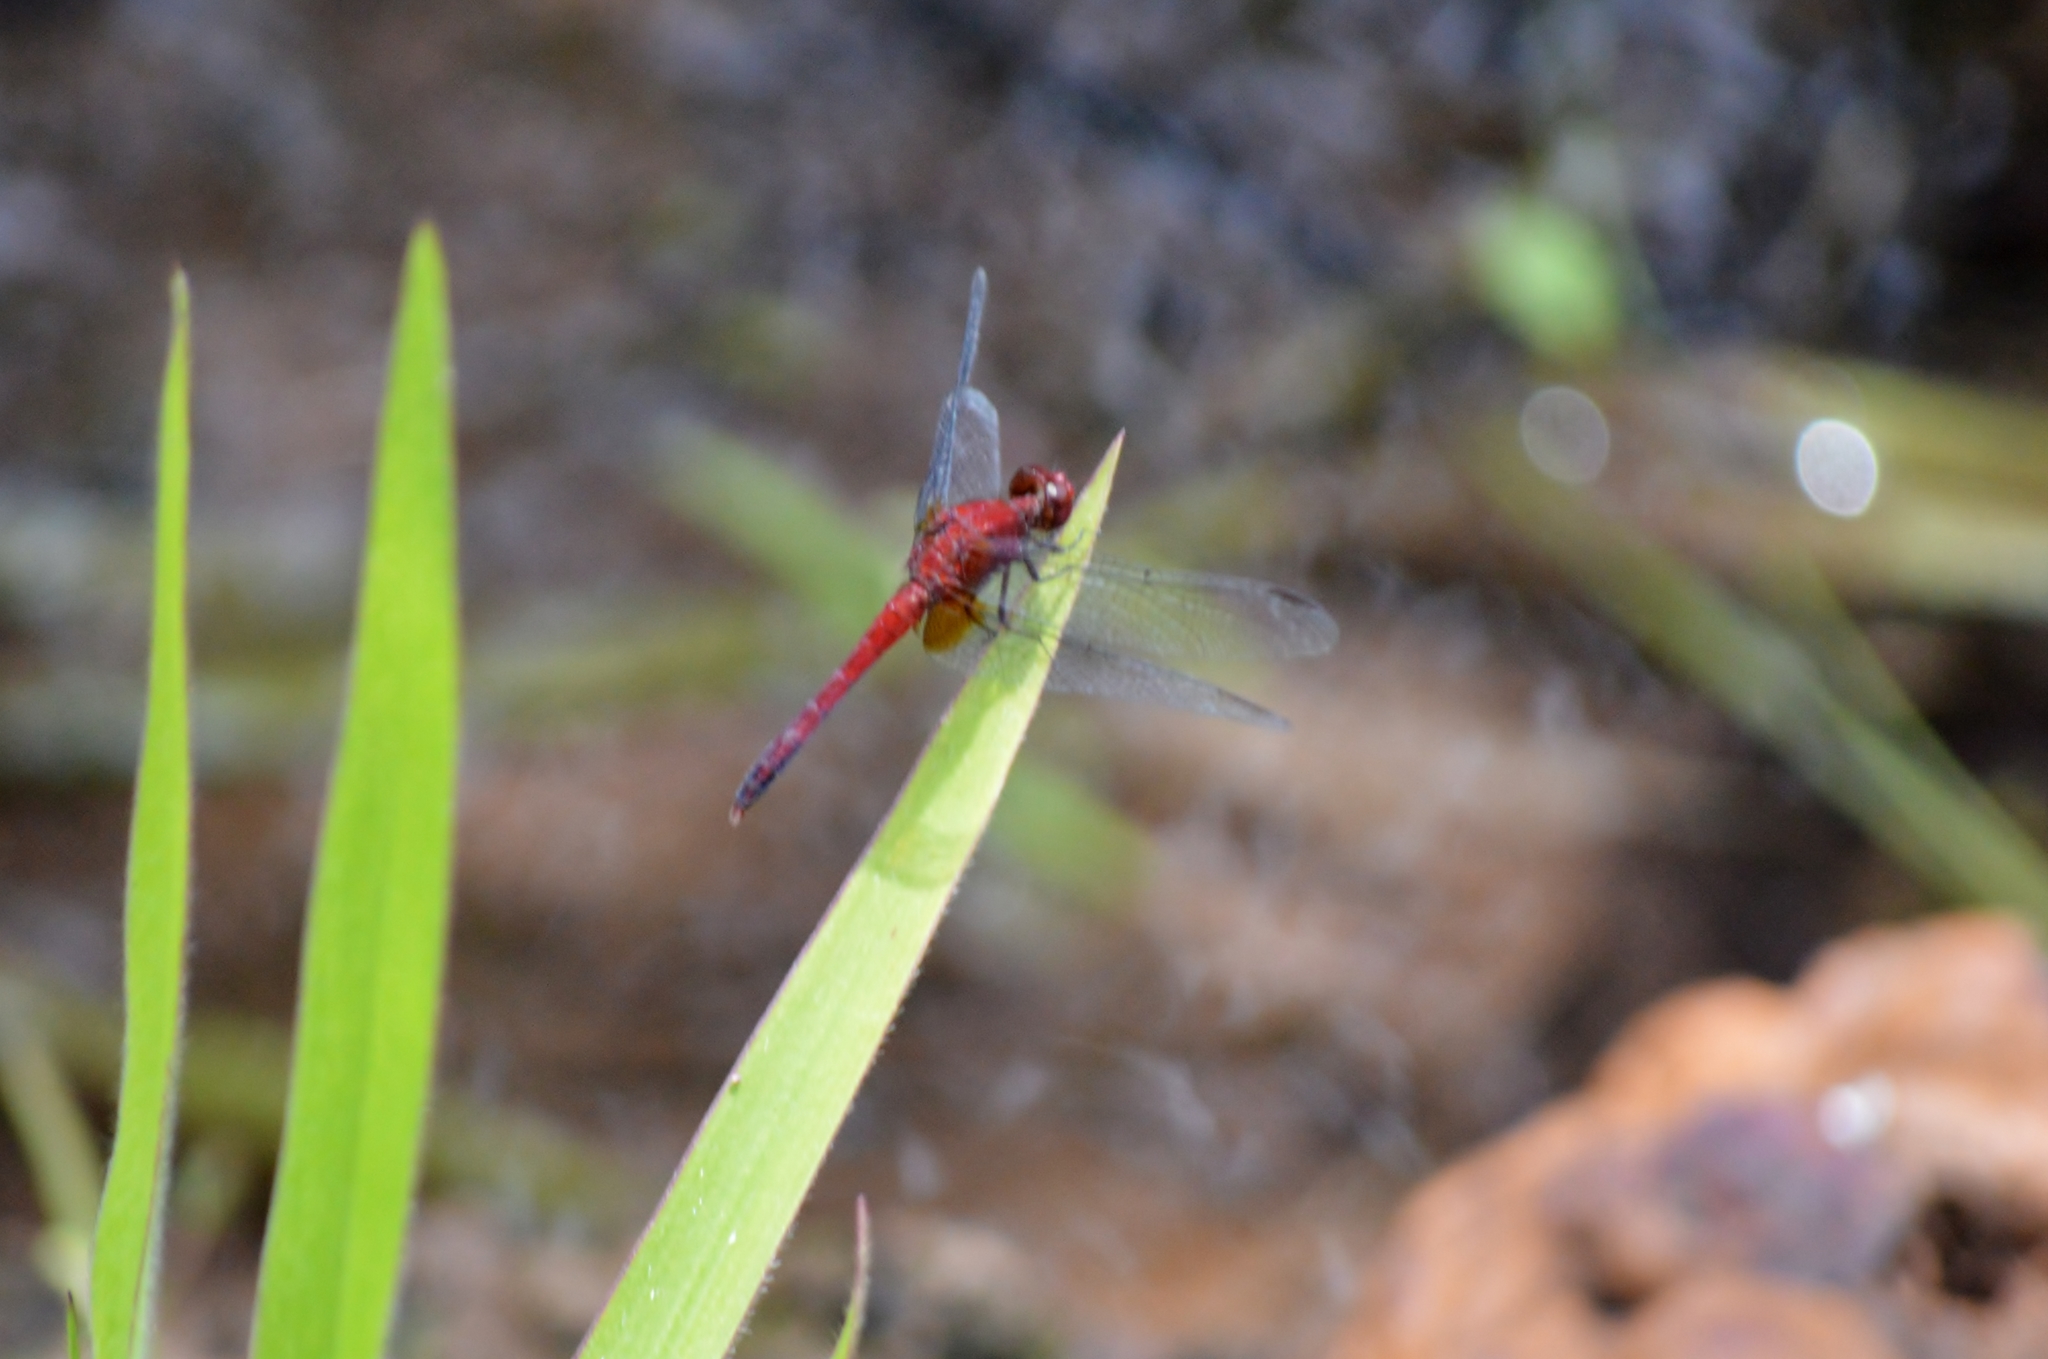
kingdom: Animalia
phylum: Arthropoda
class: Insecta
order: Odonata
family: Libellulidae
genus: Erythrodiplax
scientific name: Erythrodiplax fusca
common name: Red-faced dragonlet
